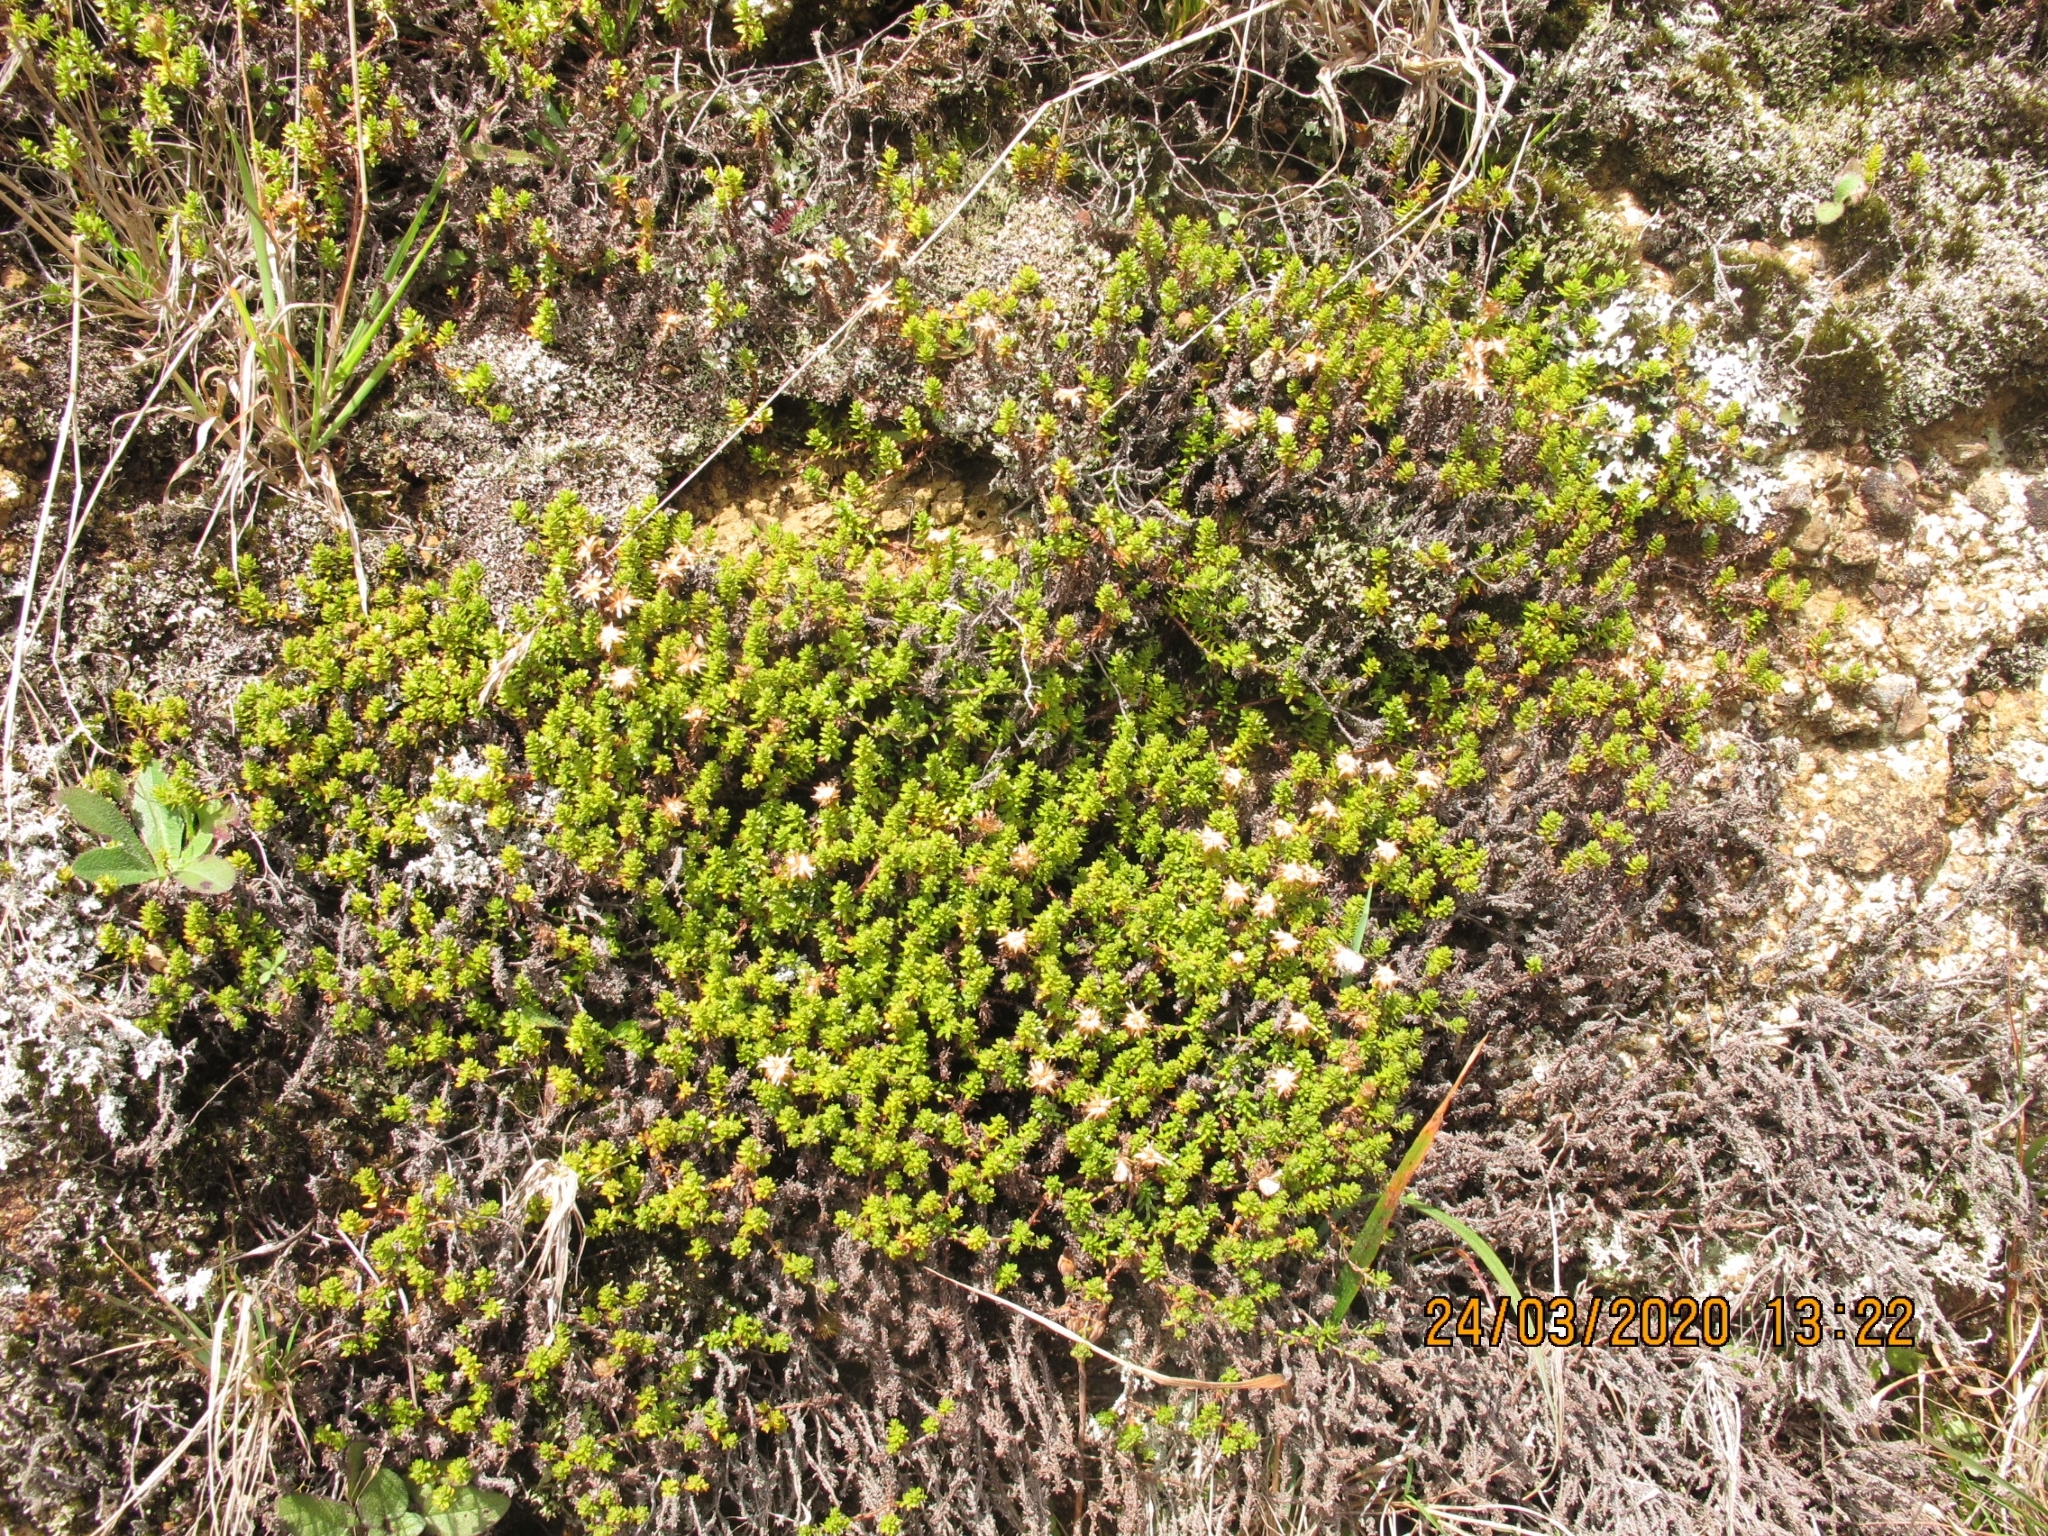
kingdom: Plantae
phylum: Tracheophyta
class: Magnoliopsida
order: Asterales
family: Asteraceae
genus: Raoulia
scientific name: Raoulia glabra
